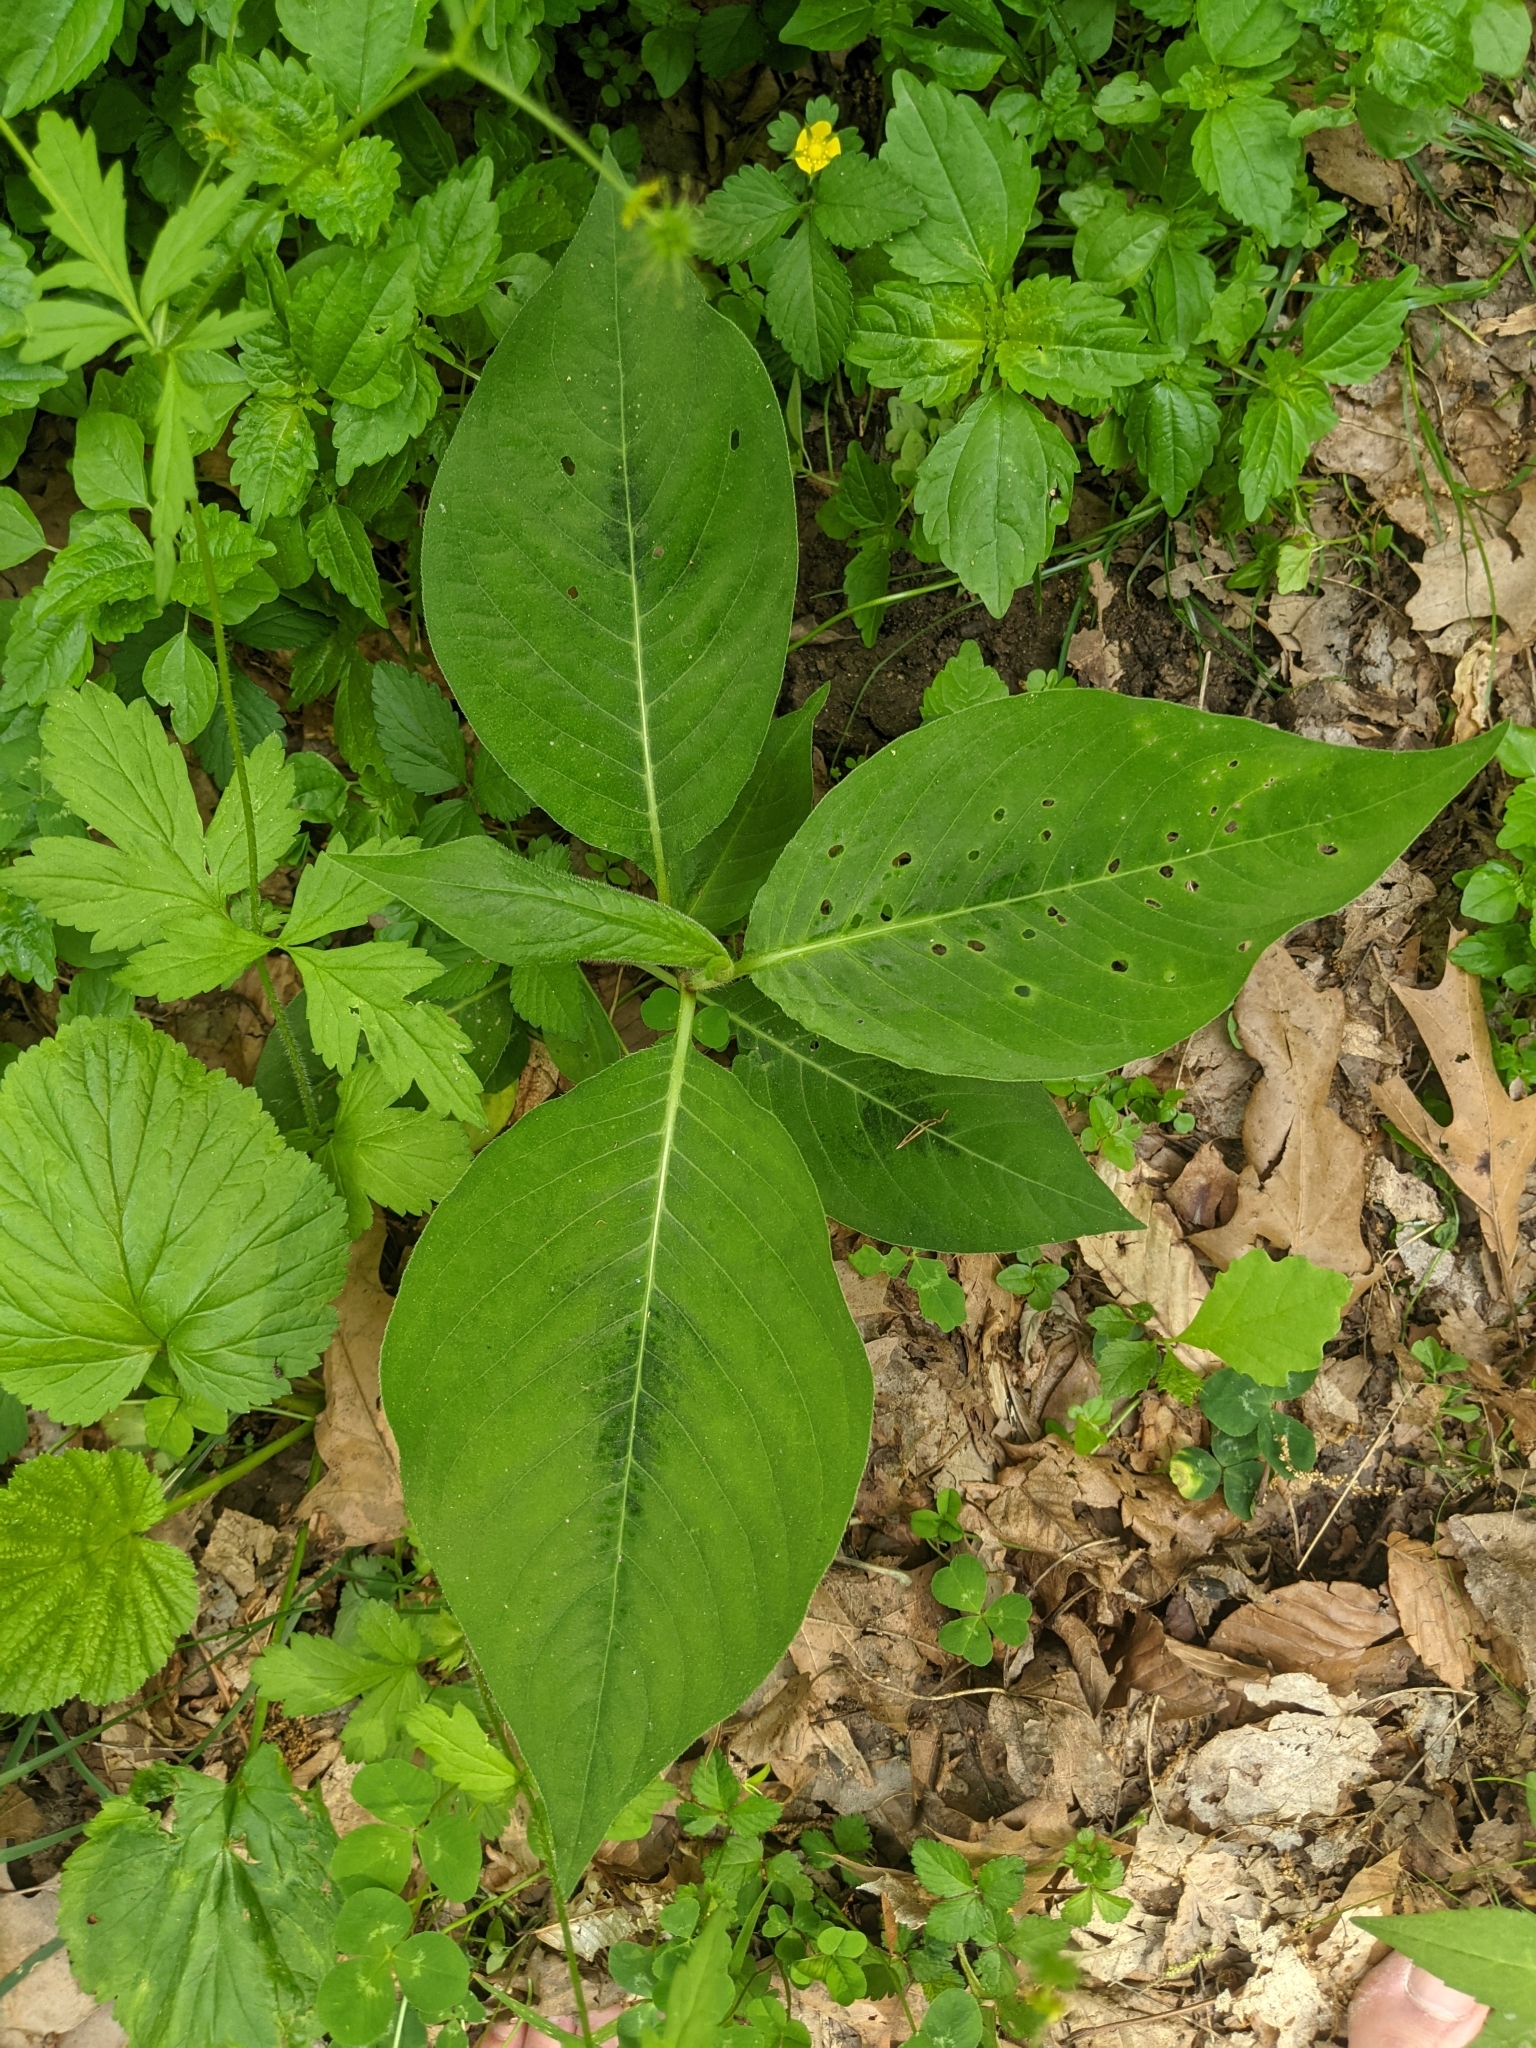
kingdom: Plantae
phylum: Tracheophyta
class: Magnoliopsida
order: Caryophyllales
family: Polygonaceae
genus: Persicaria
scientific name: Persicaria virginiana
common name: Jumpseed
